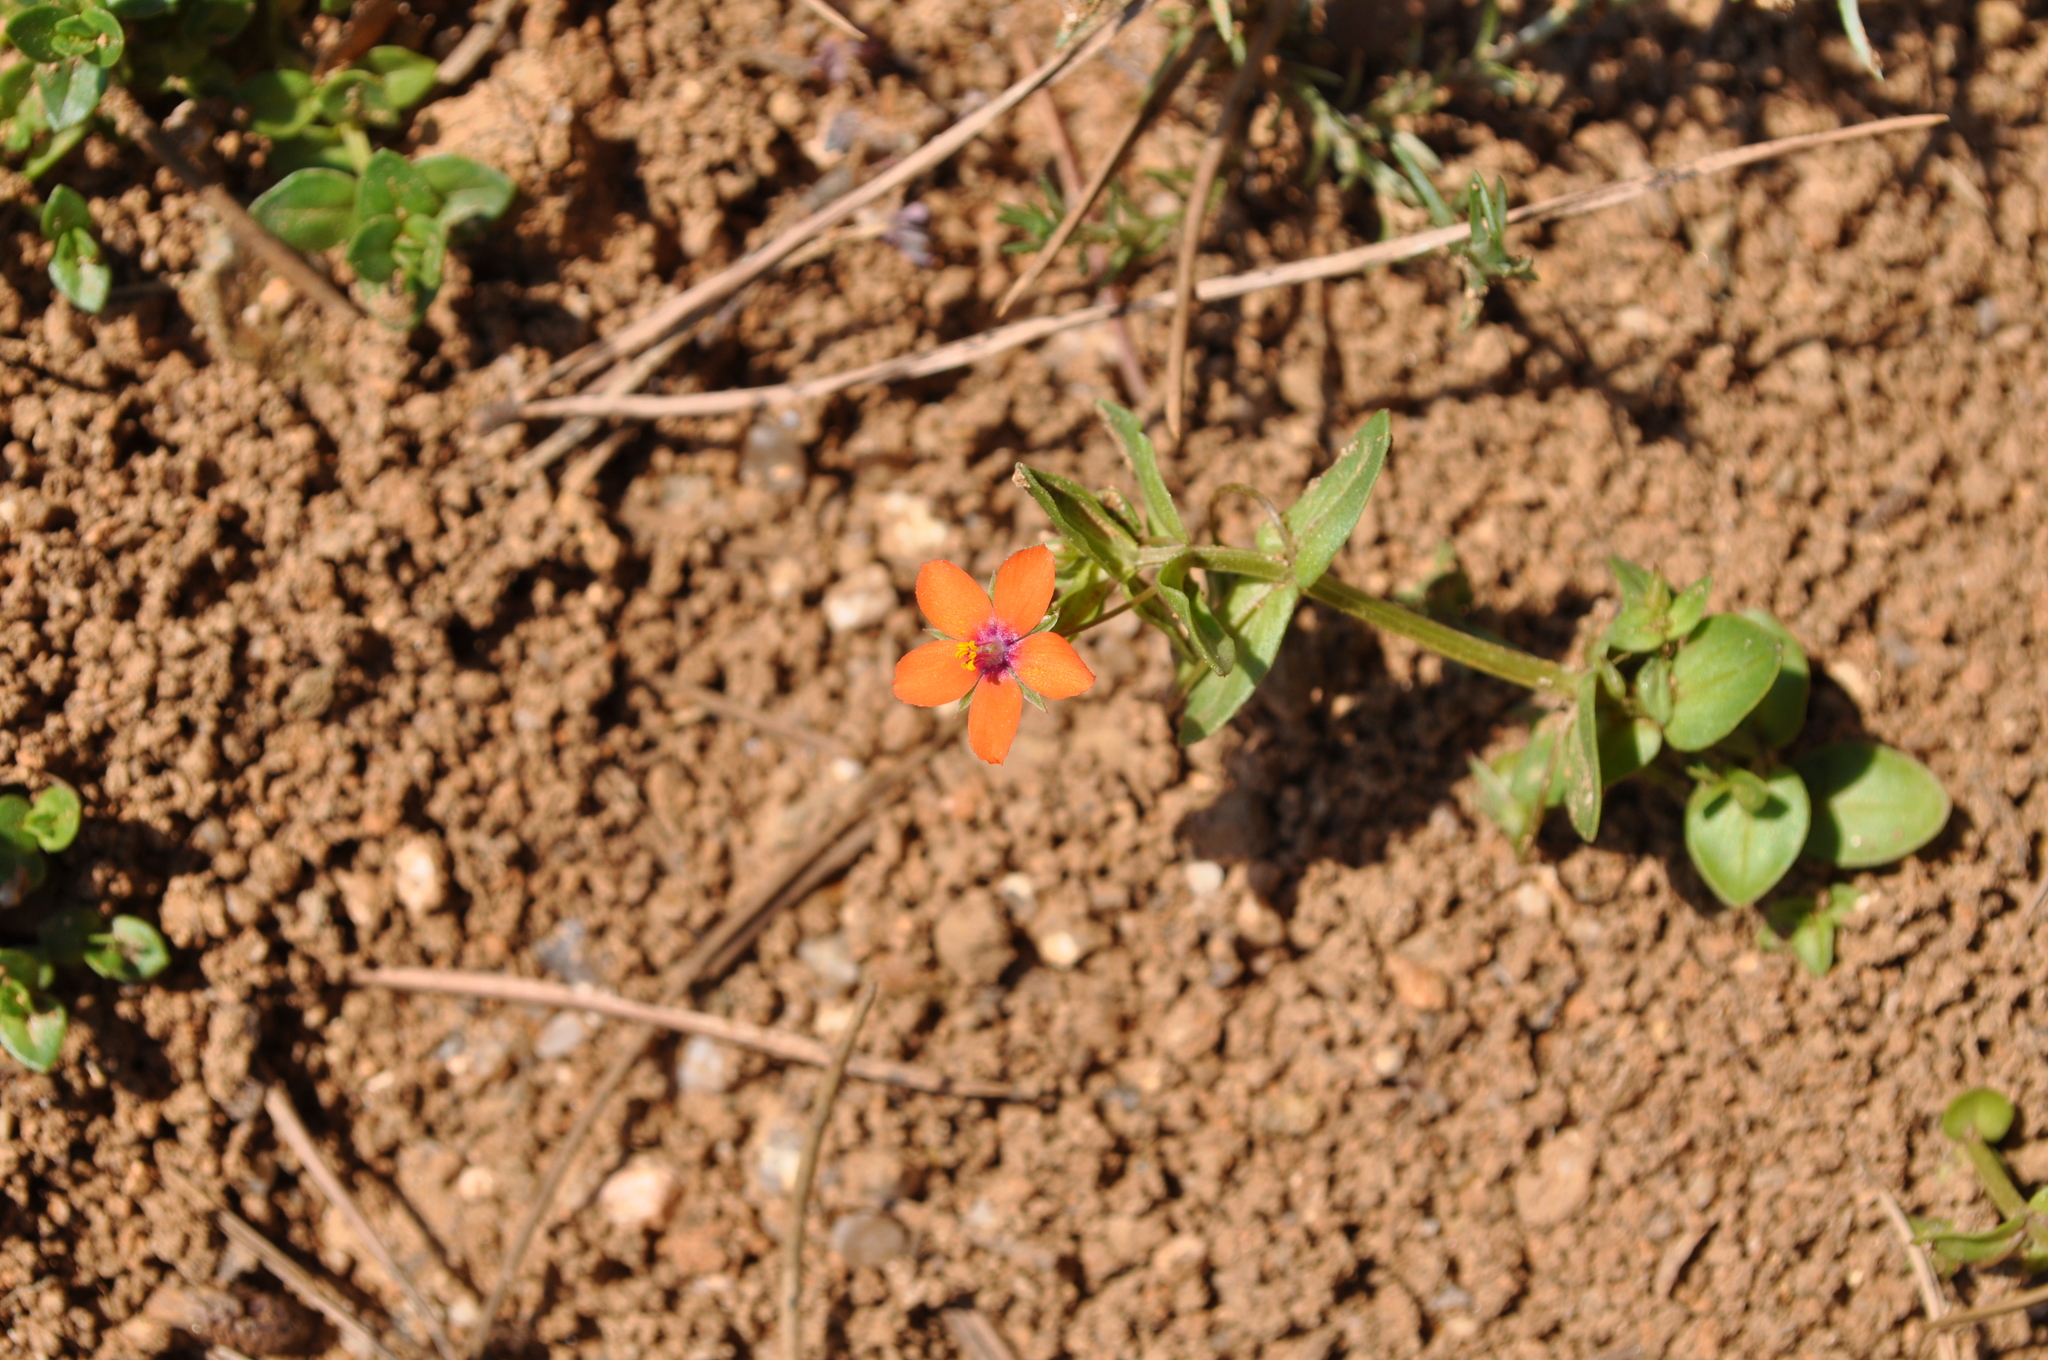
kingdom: Plantae
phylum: Tracheophyta
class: Magnoliopsida
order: Ericales
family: Primulaceae
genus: Lysimachia
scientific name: Lysimachia arvensis
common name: Scarlet pimpernel
